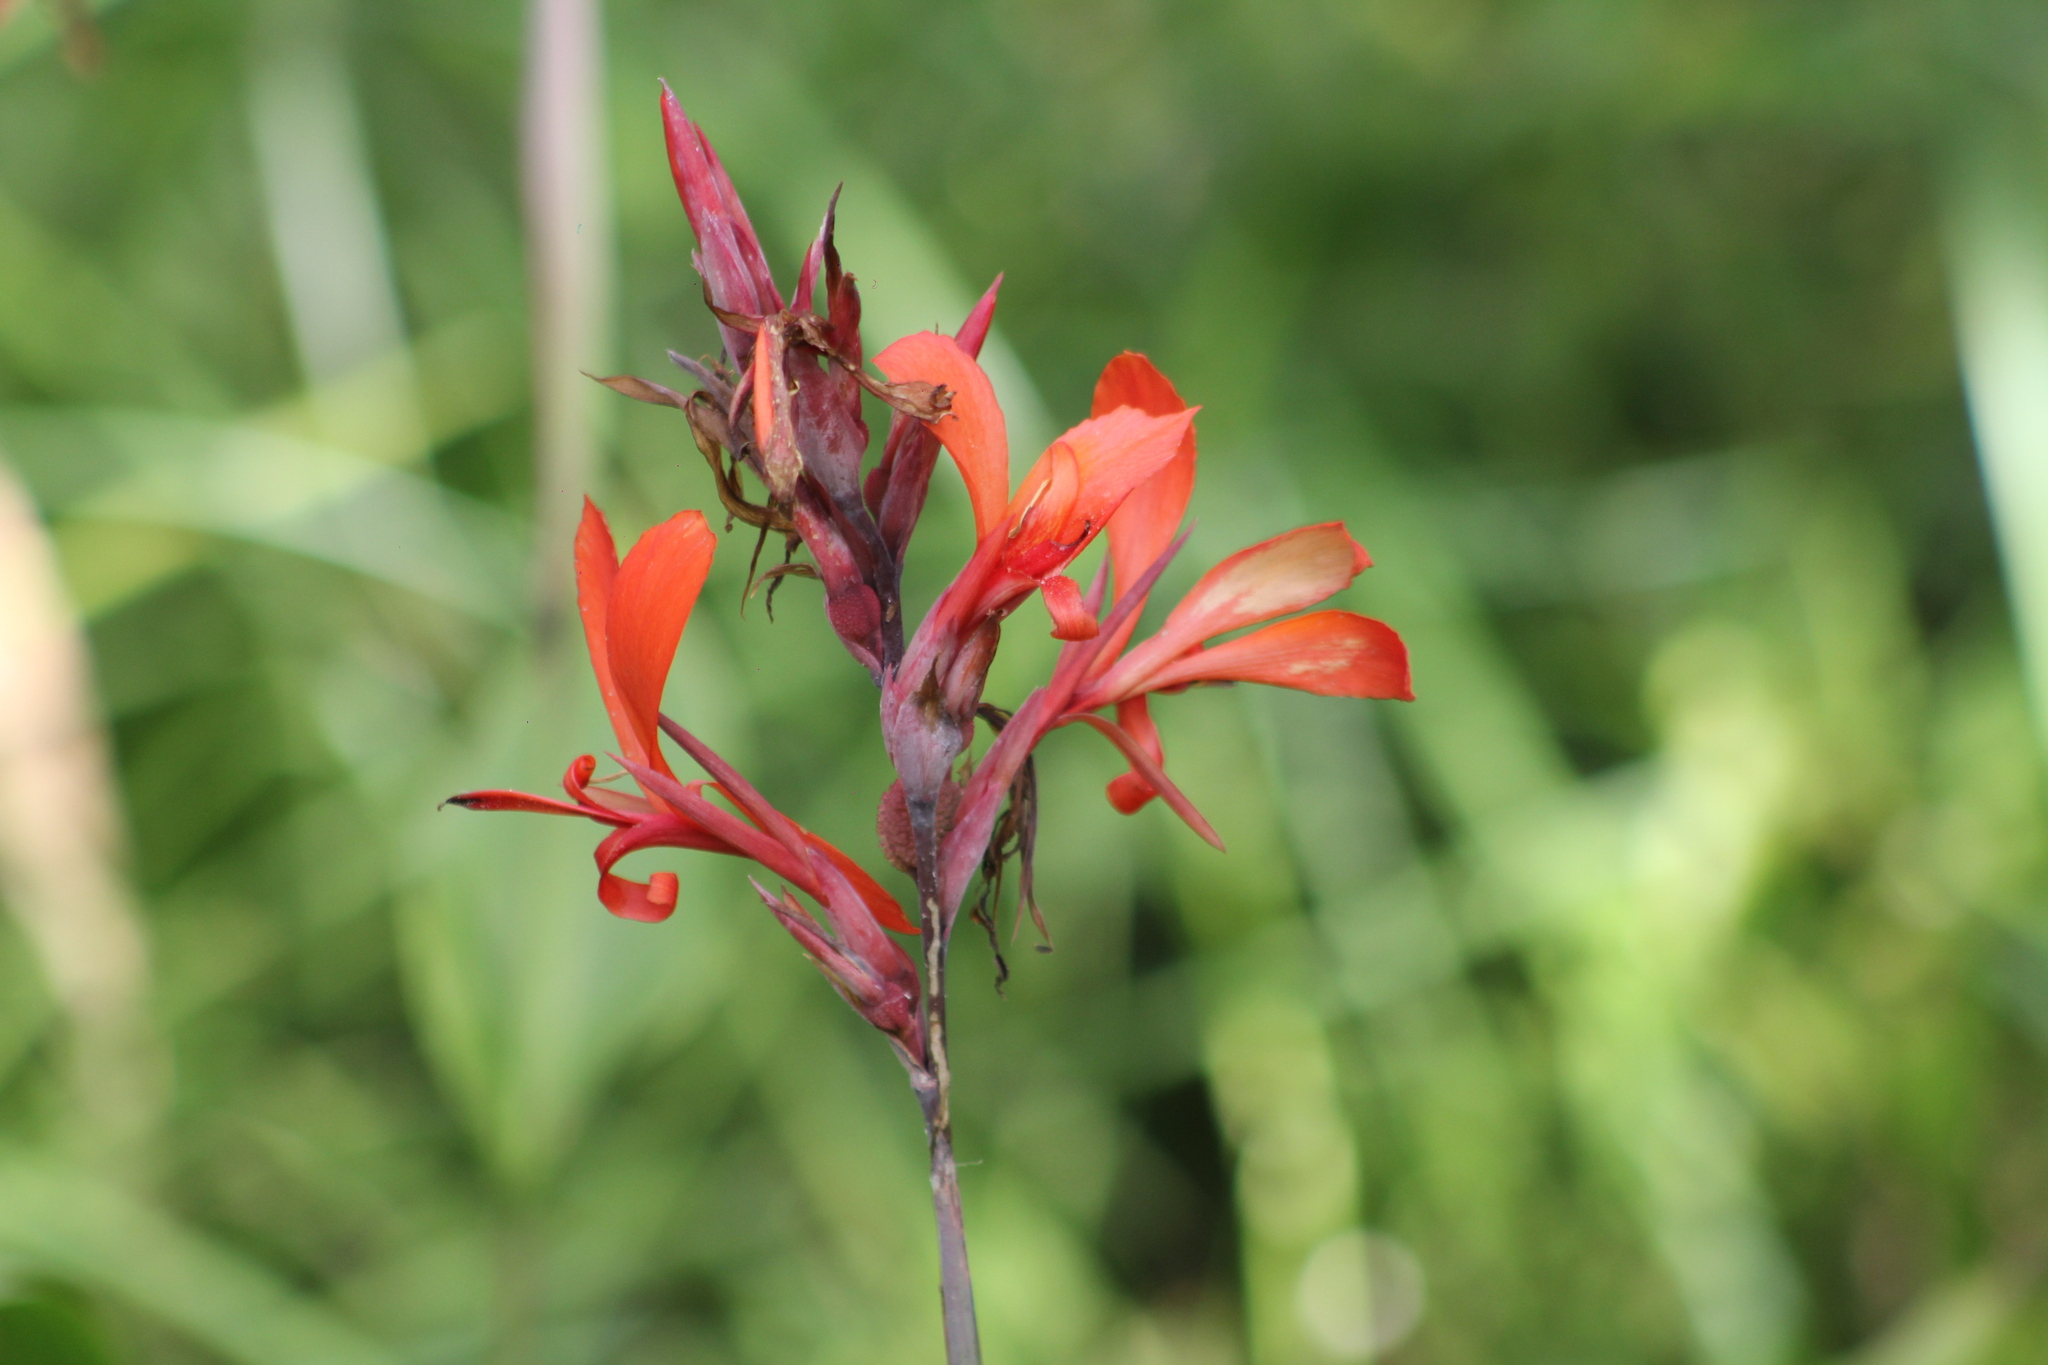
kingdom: Plantae
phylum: Tracheophyta
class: Liliopsida
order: Zingiberales
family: Cannaceae
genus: Canna
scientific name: Canna indica
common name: Indian shot
